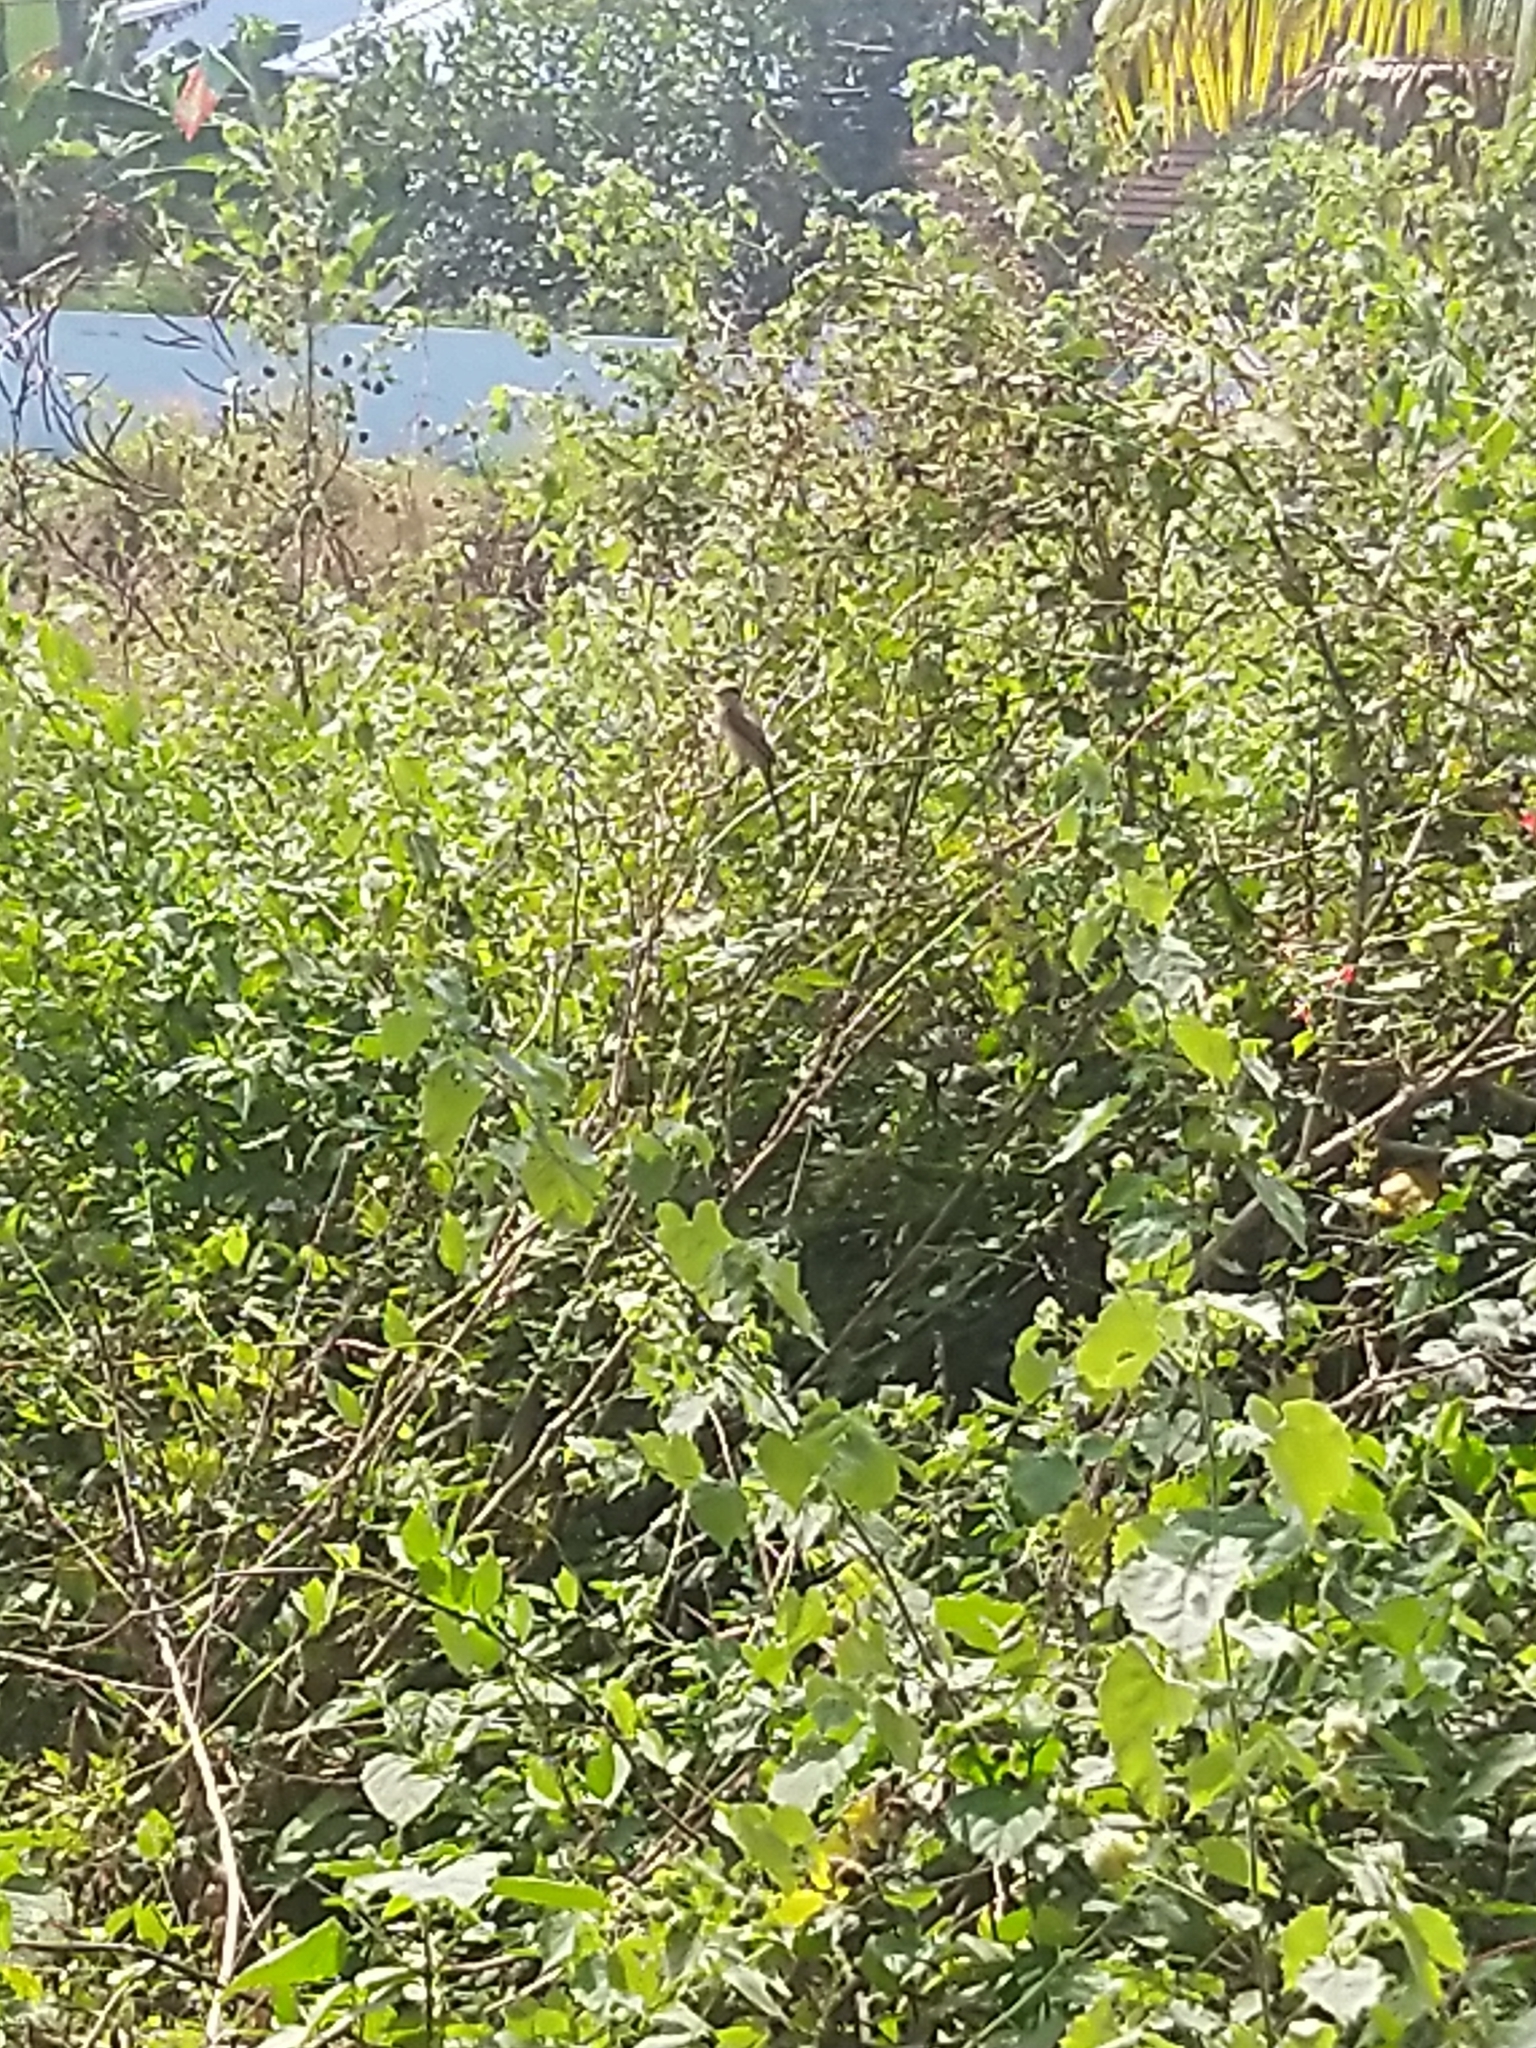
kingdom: Animalia
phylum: Chordata
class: Aves
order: Passeriformes
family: Laniidae
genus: Lanius
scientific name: Lanius cristatus
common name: Brown shrike
